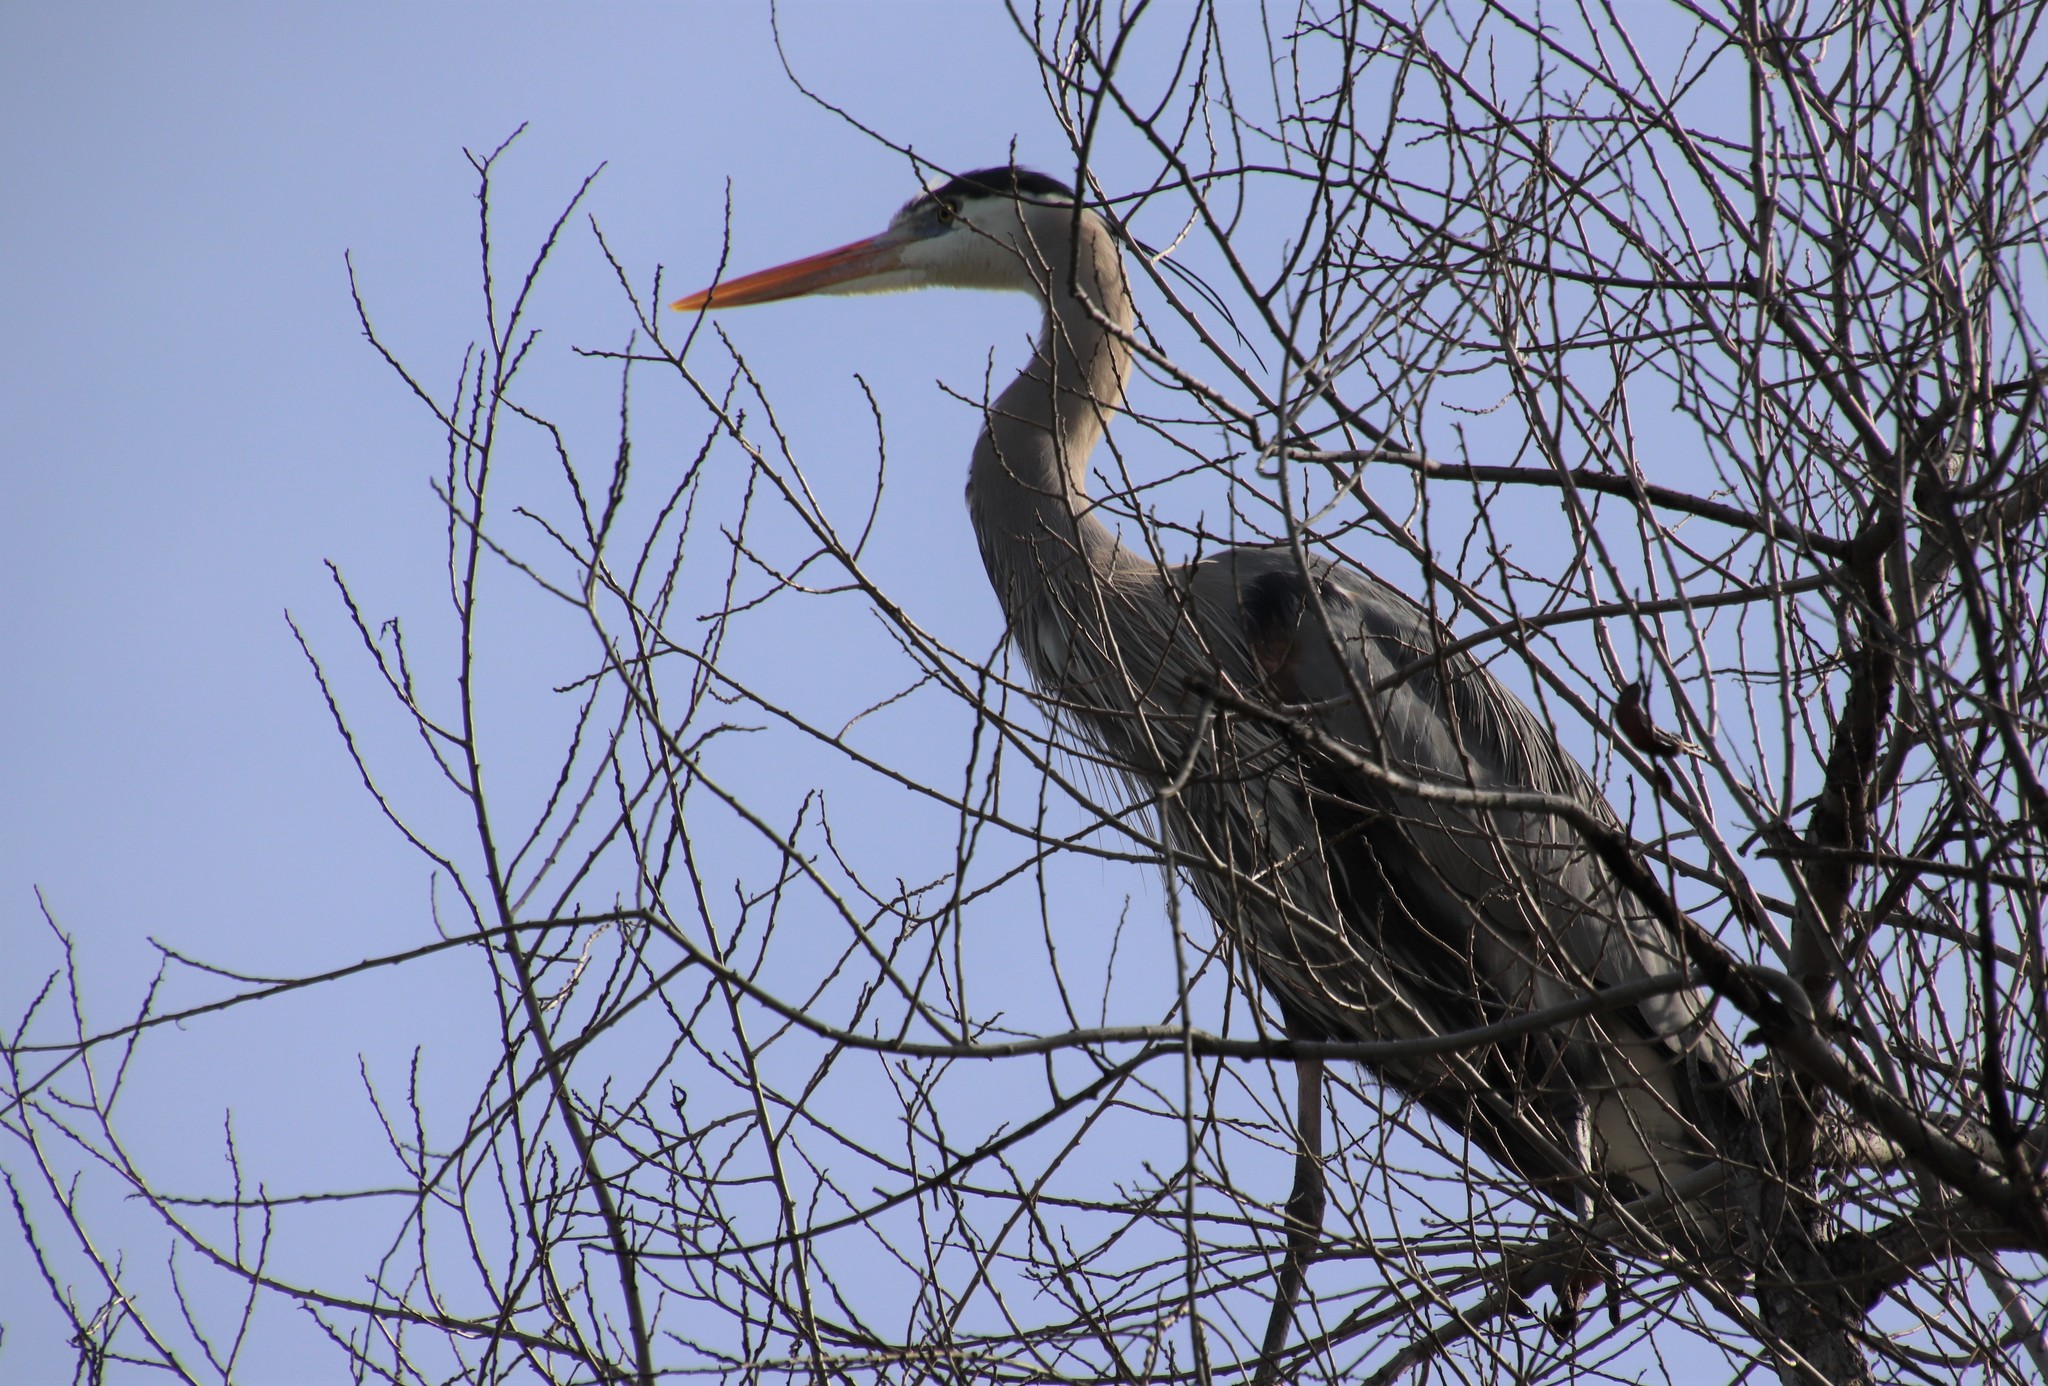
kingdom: Animalia
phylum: Chordata
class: Aves
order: Pelecaniformes
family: Ardeidae
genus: Ardea
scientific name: Ardea herodias
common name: Great blue heron
